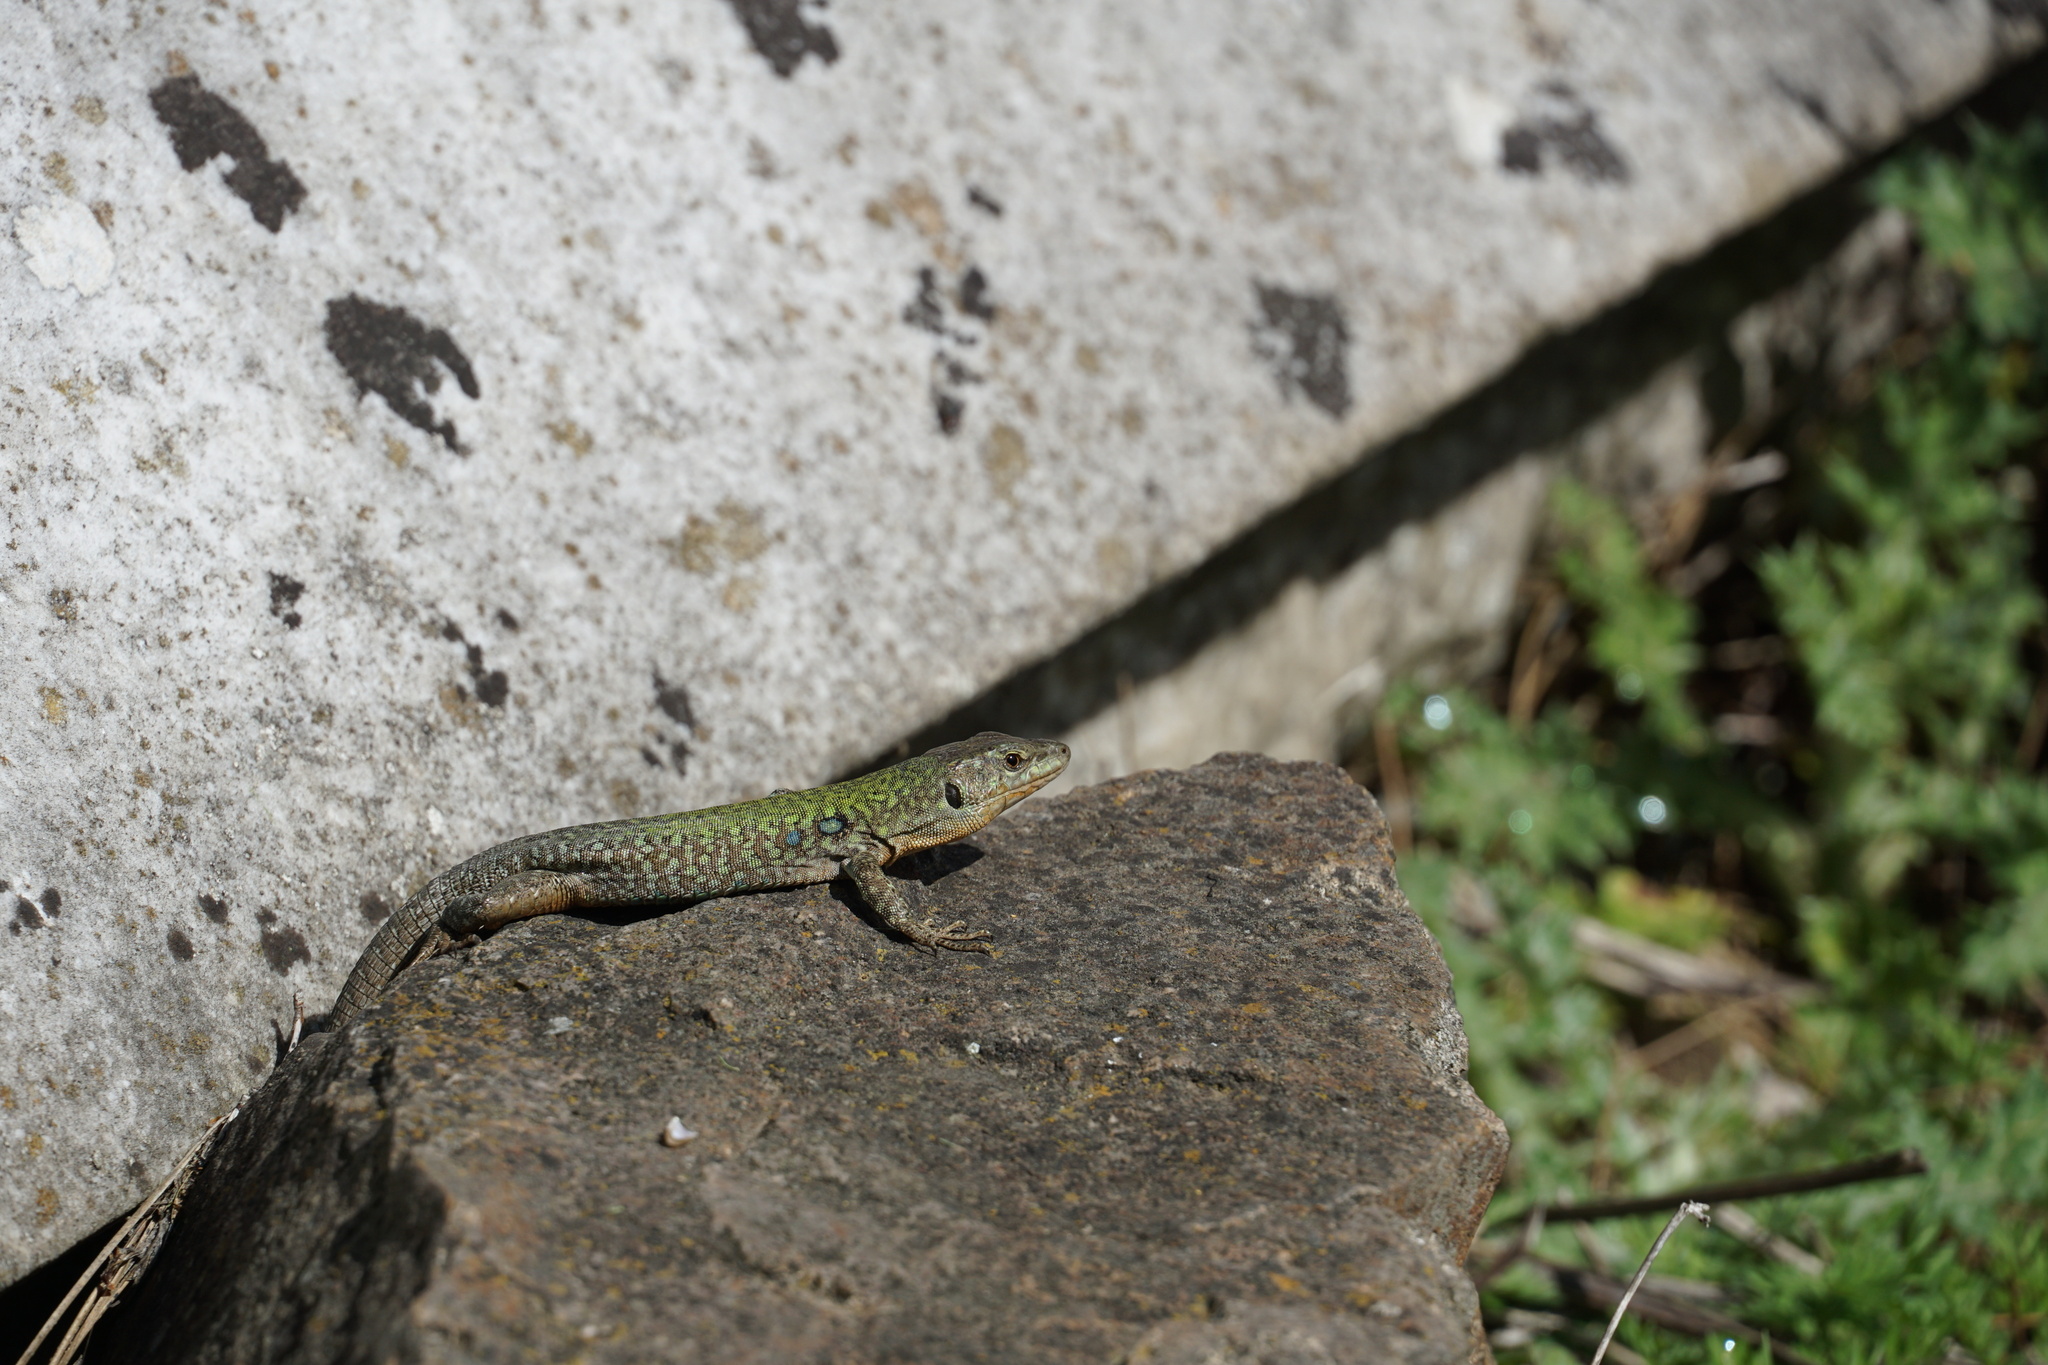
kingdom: Animalia
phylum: Chordata
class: Squamata
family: Lacertidae
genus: Podarcis
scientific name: Podarcis siculus
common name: Italian wall lizard
